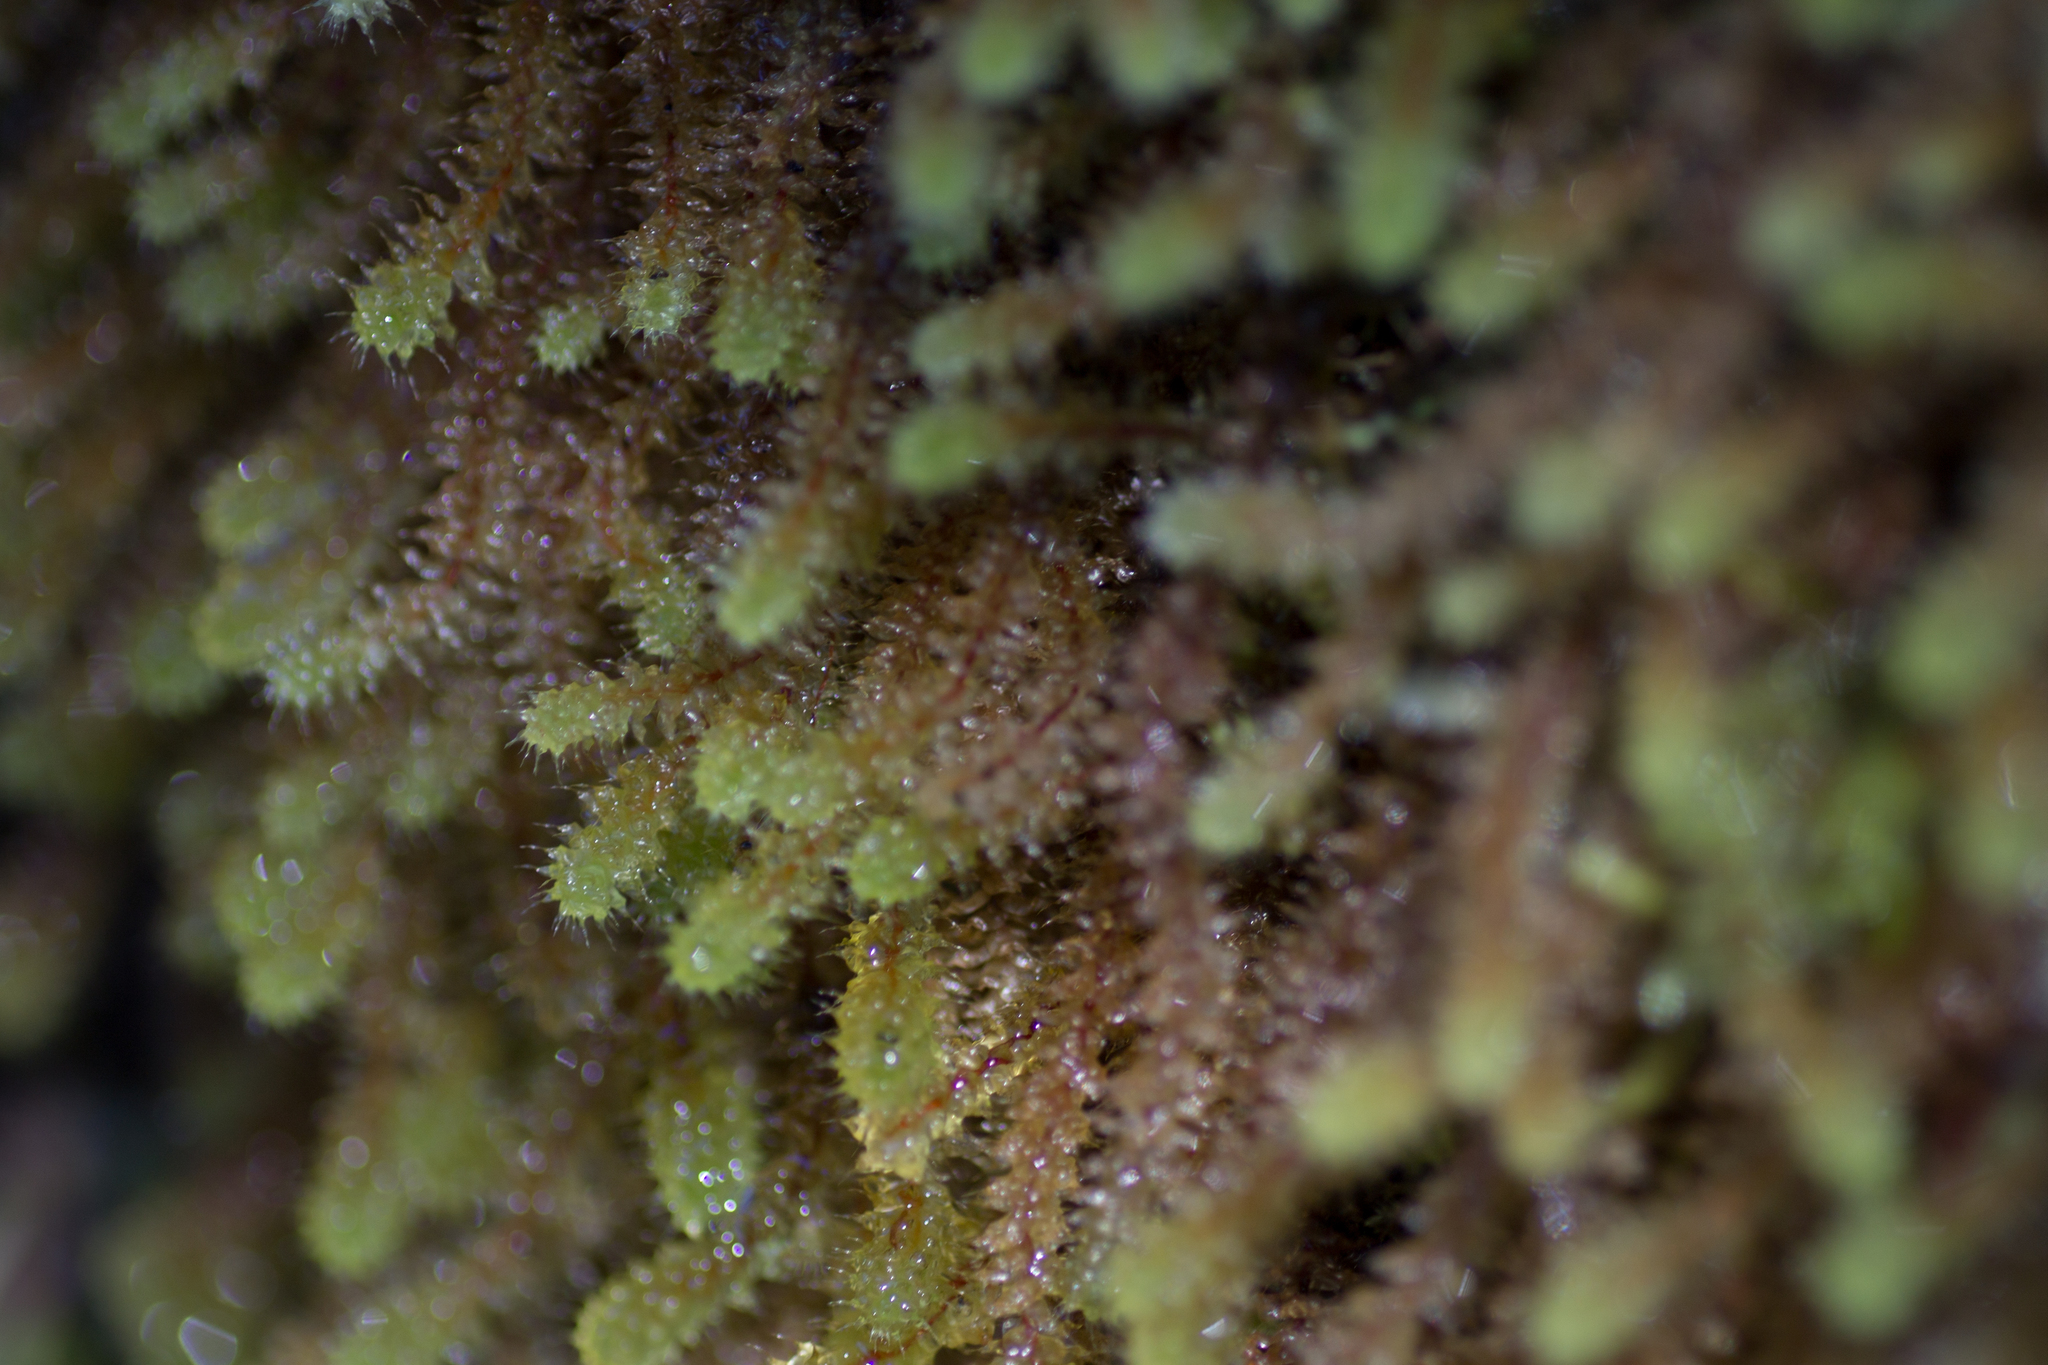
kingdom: Plantae
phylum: Bryophyta
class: Bryopsida
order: Ptychomniales
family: Ptychomniaceae
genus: Ptychomnion
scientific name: Ptychomnion aciculare
